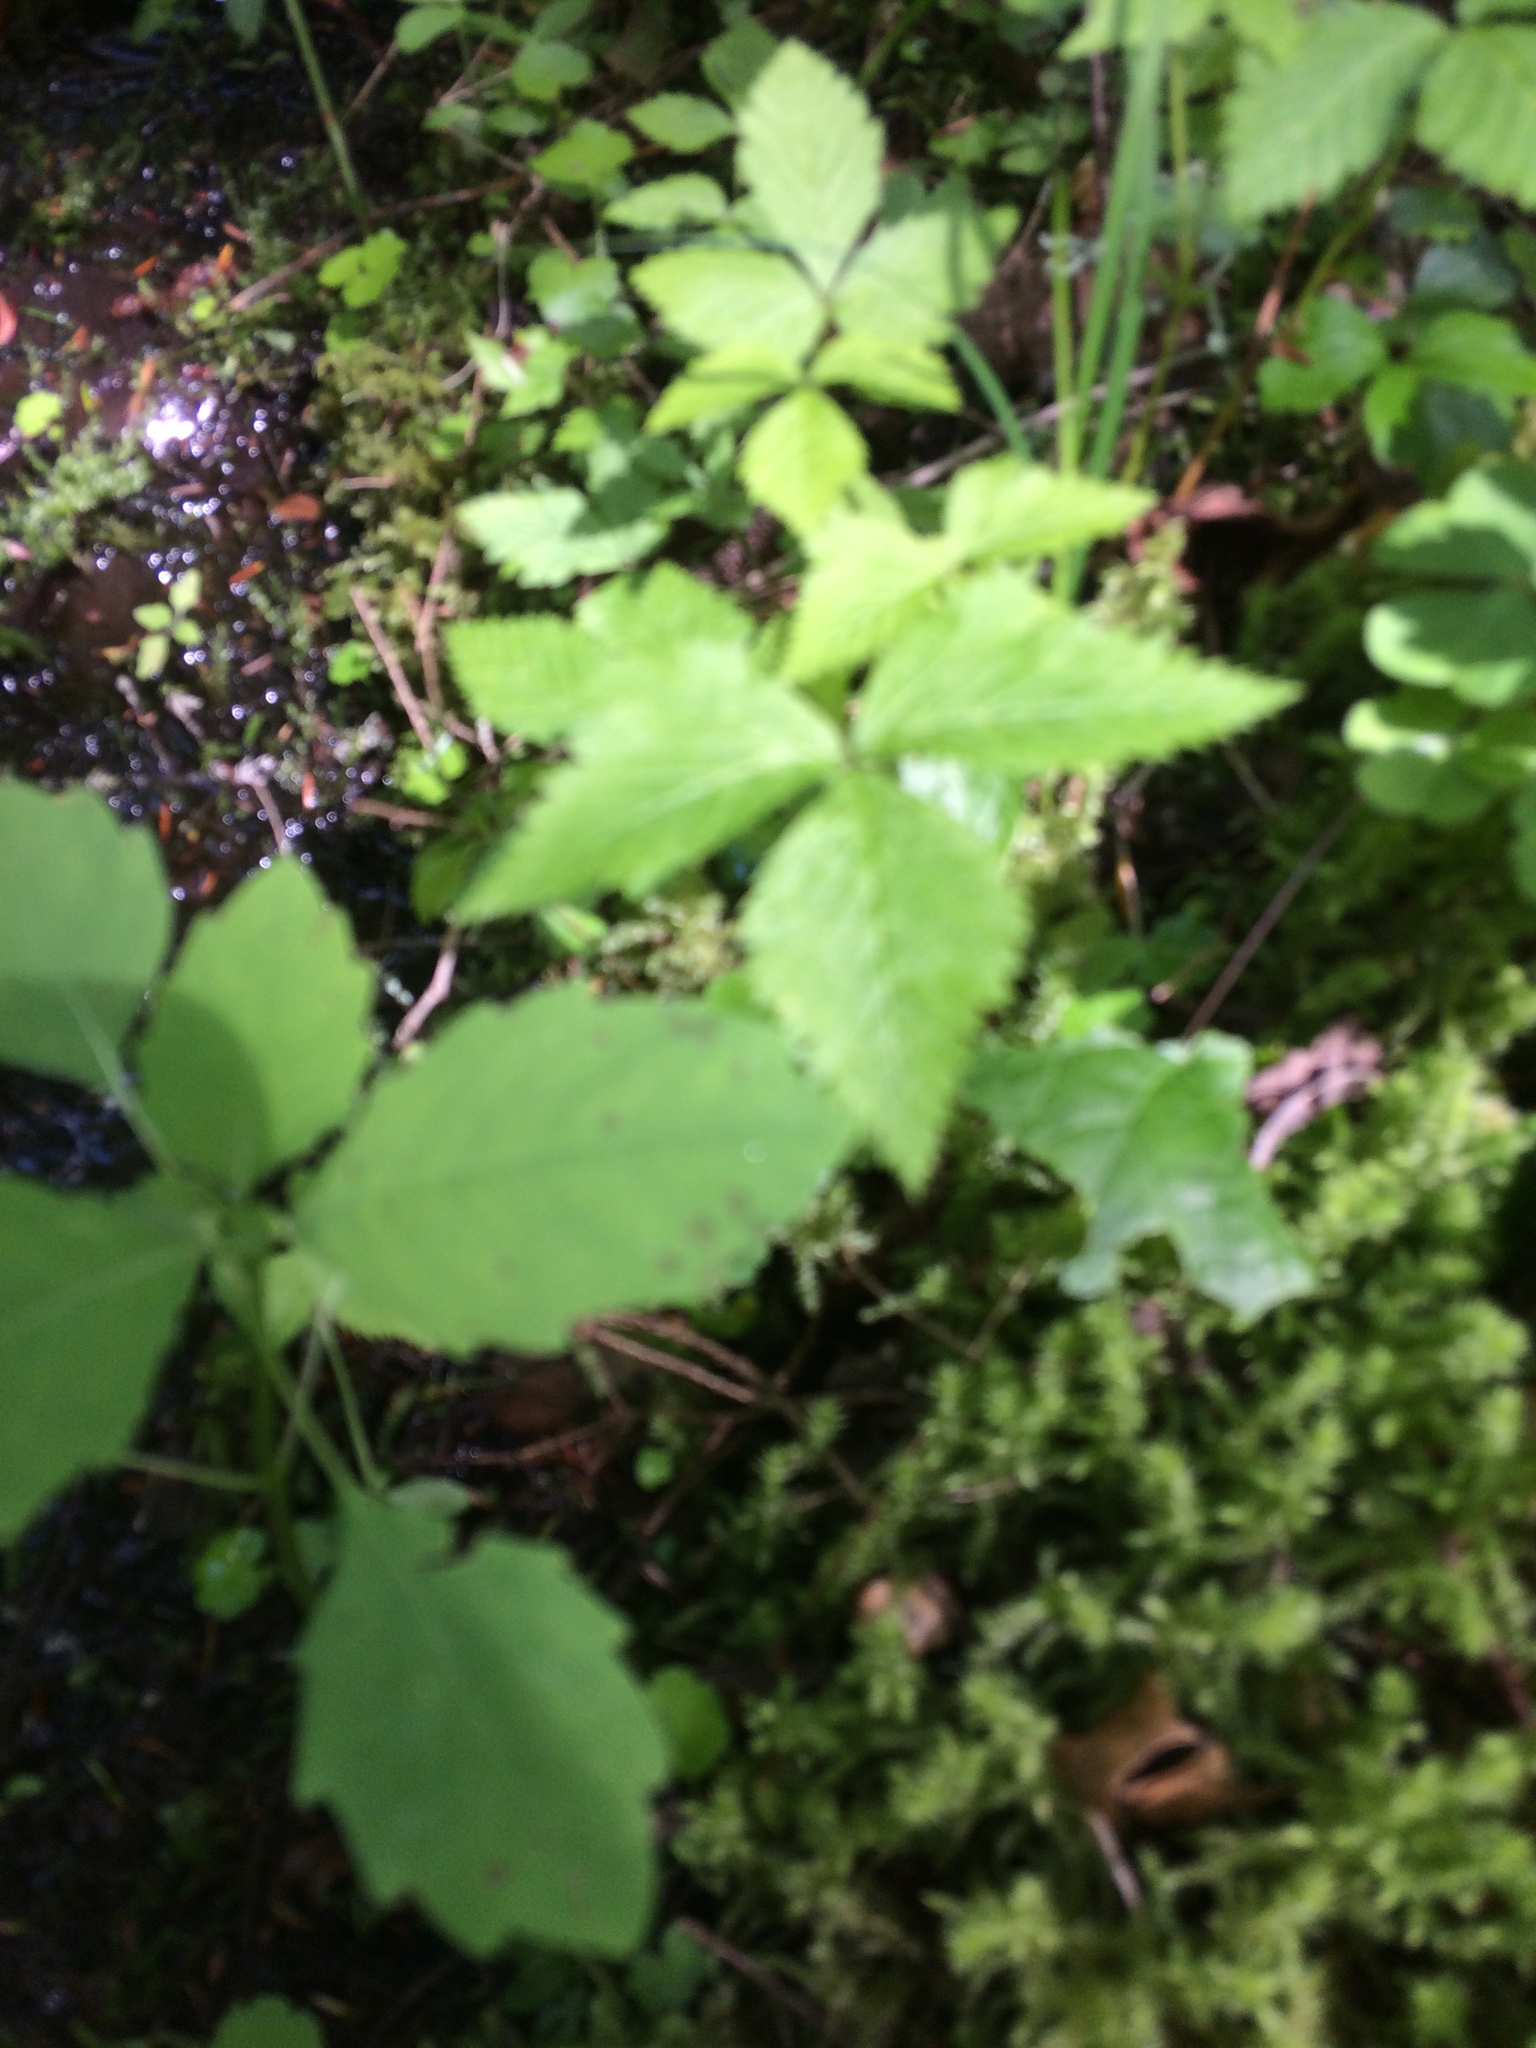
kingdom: Plantae
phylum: Tracheophyta
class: Magnoliopsida
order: Rosales
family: Rosaceae
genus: Rubus
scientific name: Rubus pubescens
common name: Dwarf raspberry
